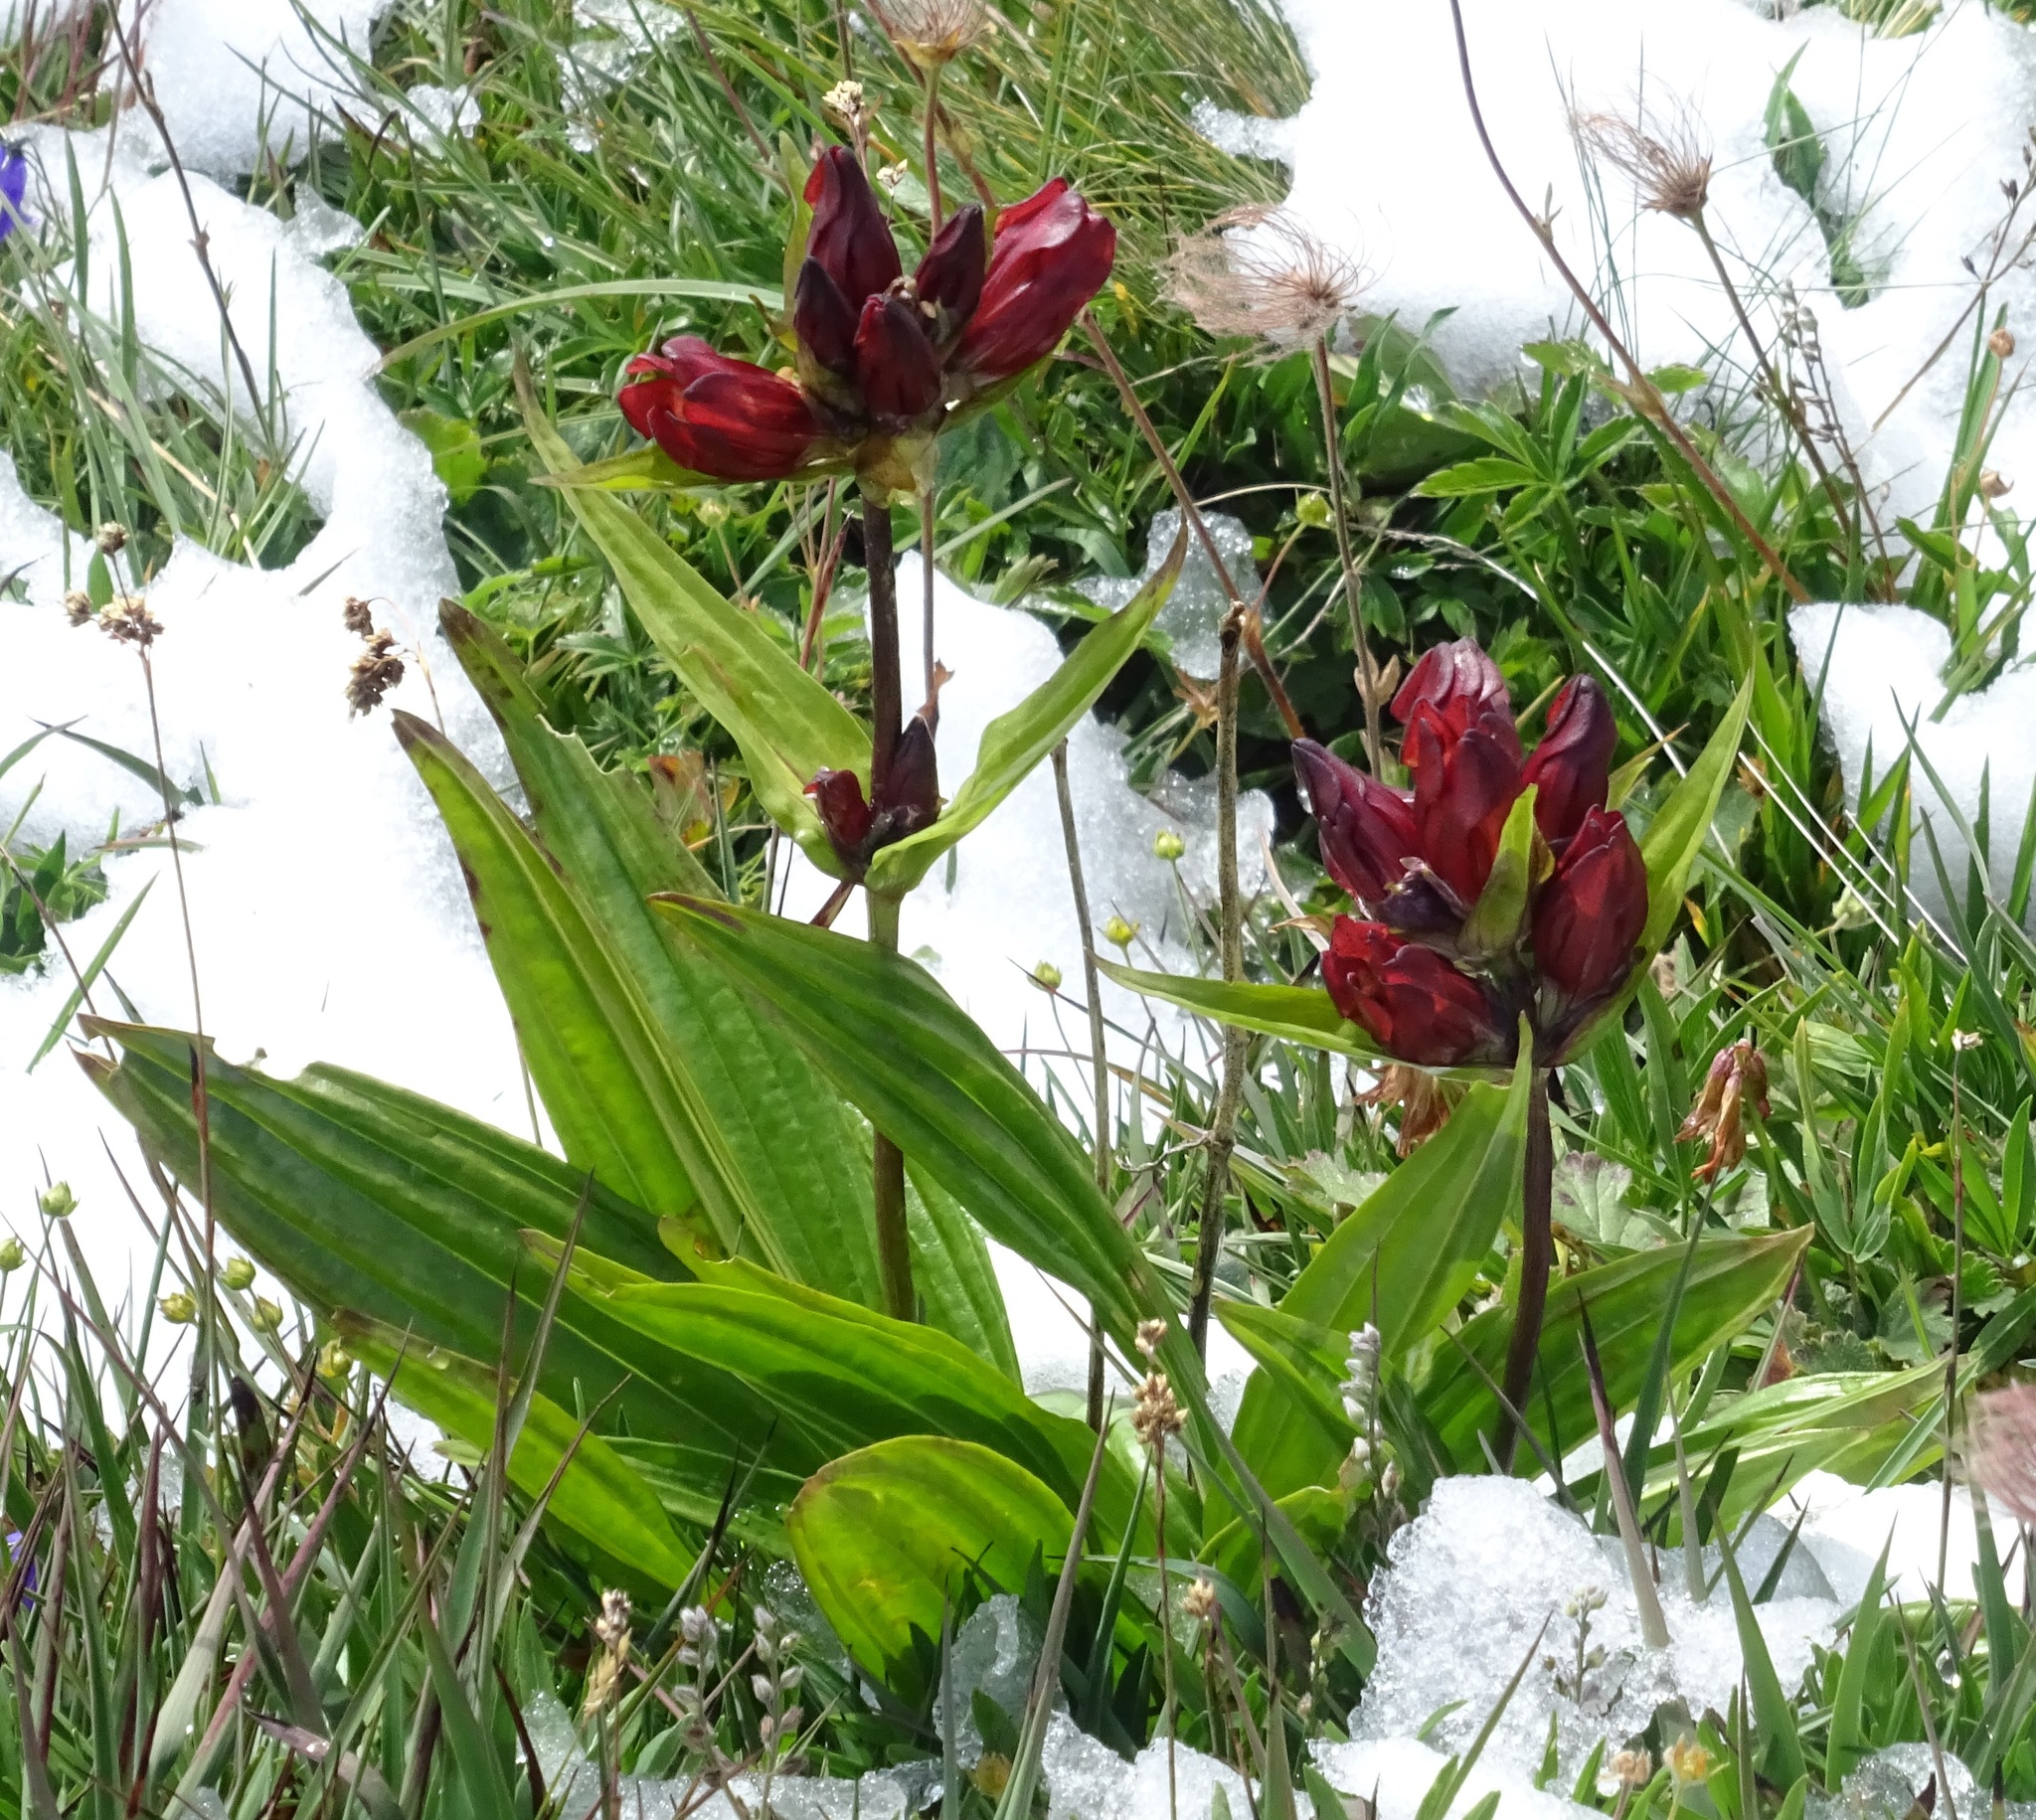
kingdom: Plantae
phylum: Tracheophyta
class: Magnoliopsida
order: Gentianales
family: Gentianaceae
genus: Gentiana
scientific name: Gentiana purpurea
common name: Purple gentian
